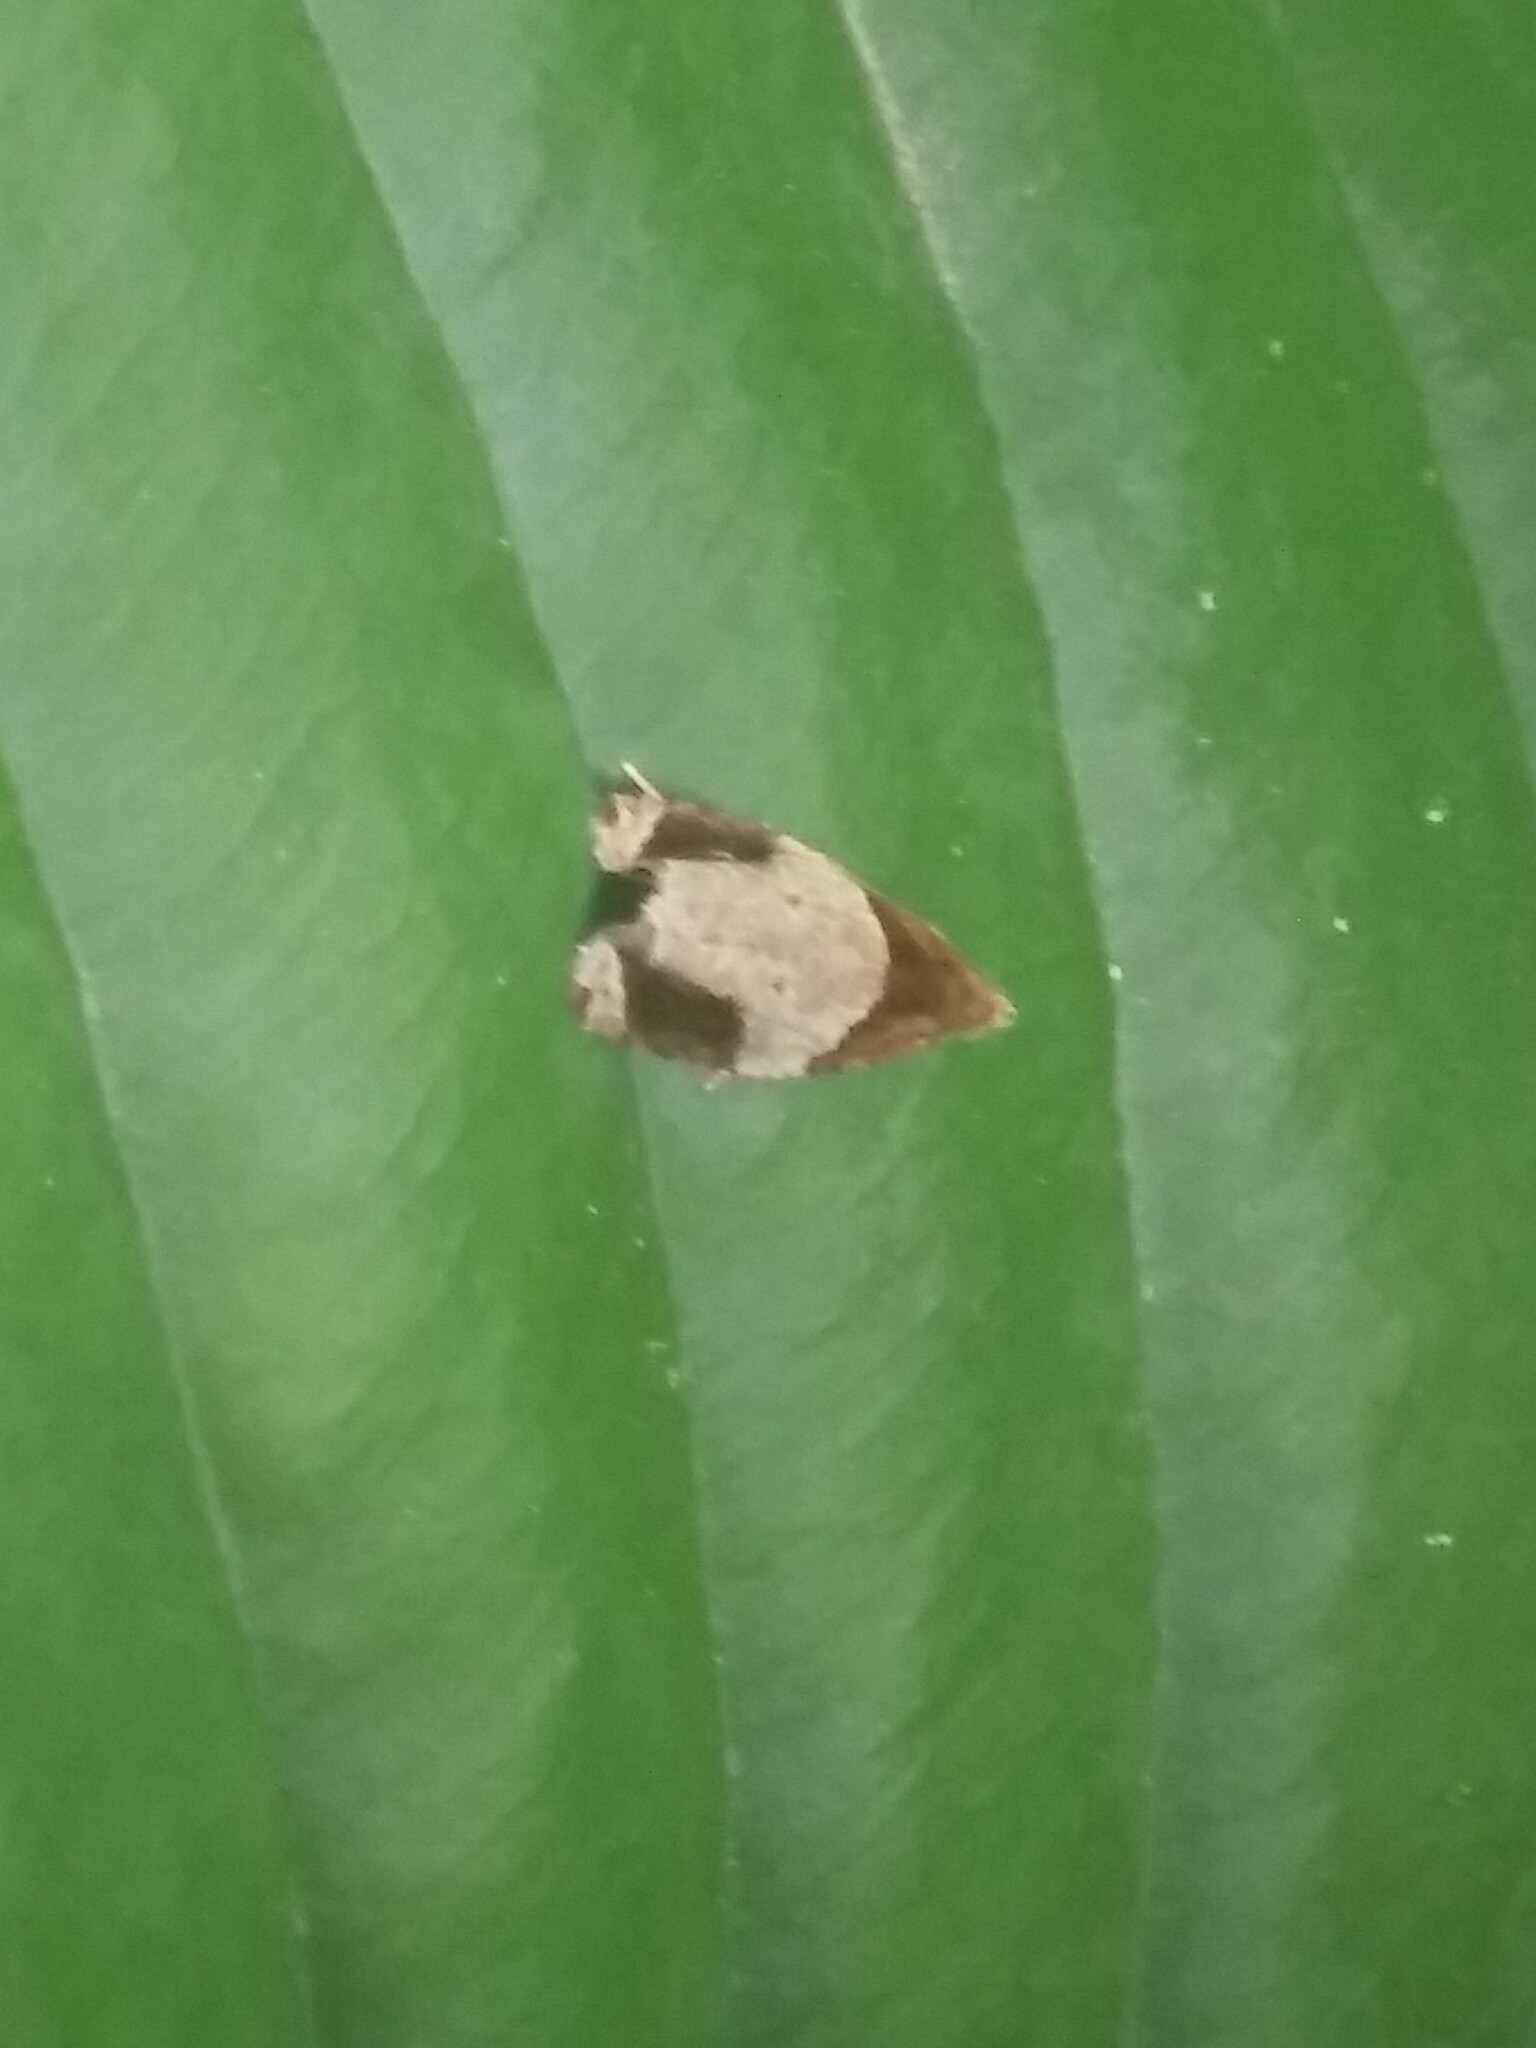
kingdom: Animalia
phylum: Arthropoda
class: Insecta
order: Lepidoptera
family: Tortricidae
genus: Olethreutes
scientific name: Olethreutes ferriferana
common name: Hydrangea leaftier moth
